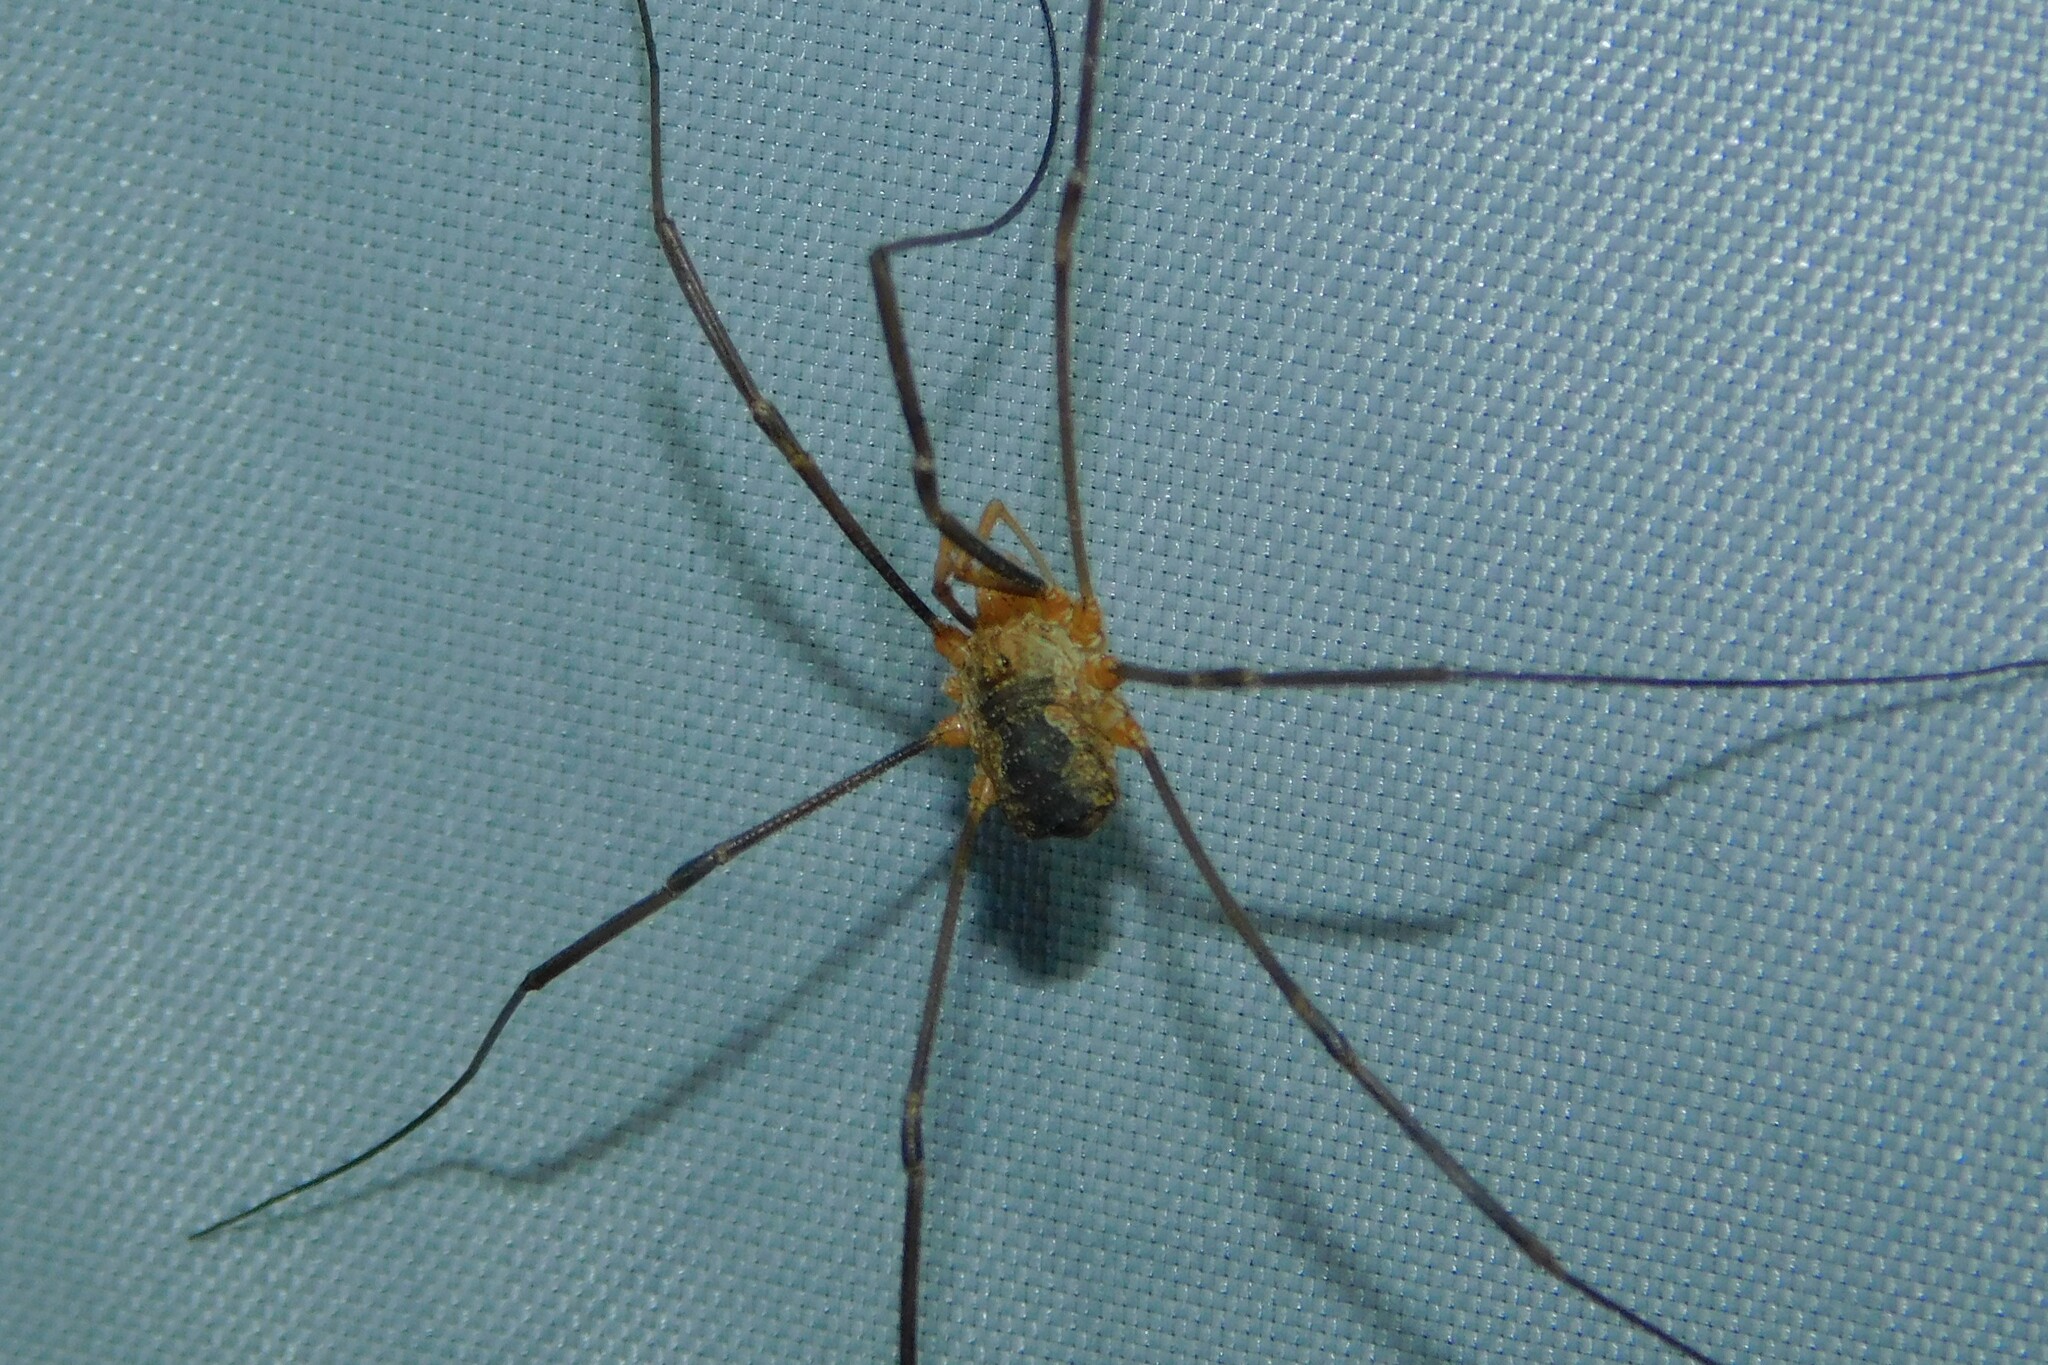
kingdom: Animalia
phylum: Arthropoda
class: Arachnida
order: Opiliones
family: Phalangiidae
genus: Phalangium
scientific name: Phalangium opilio
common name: Daddy longleg
